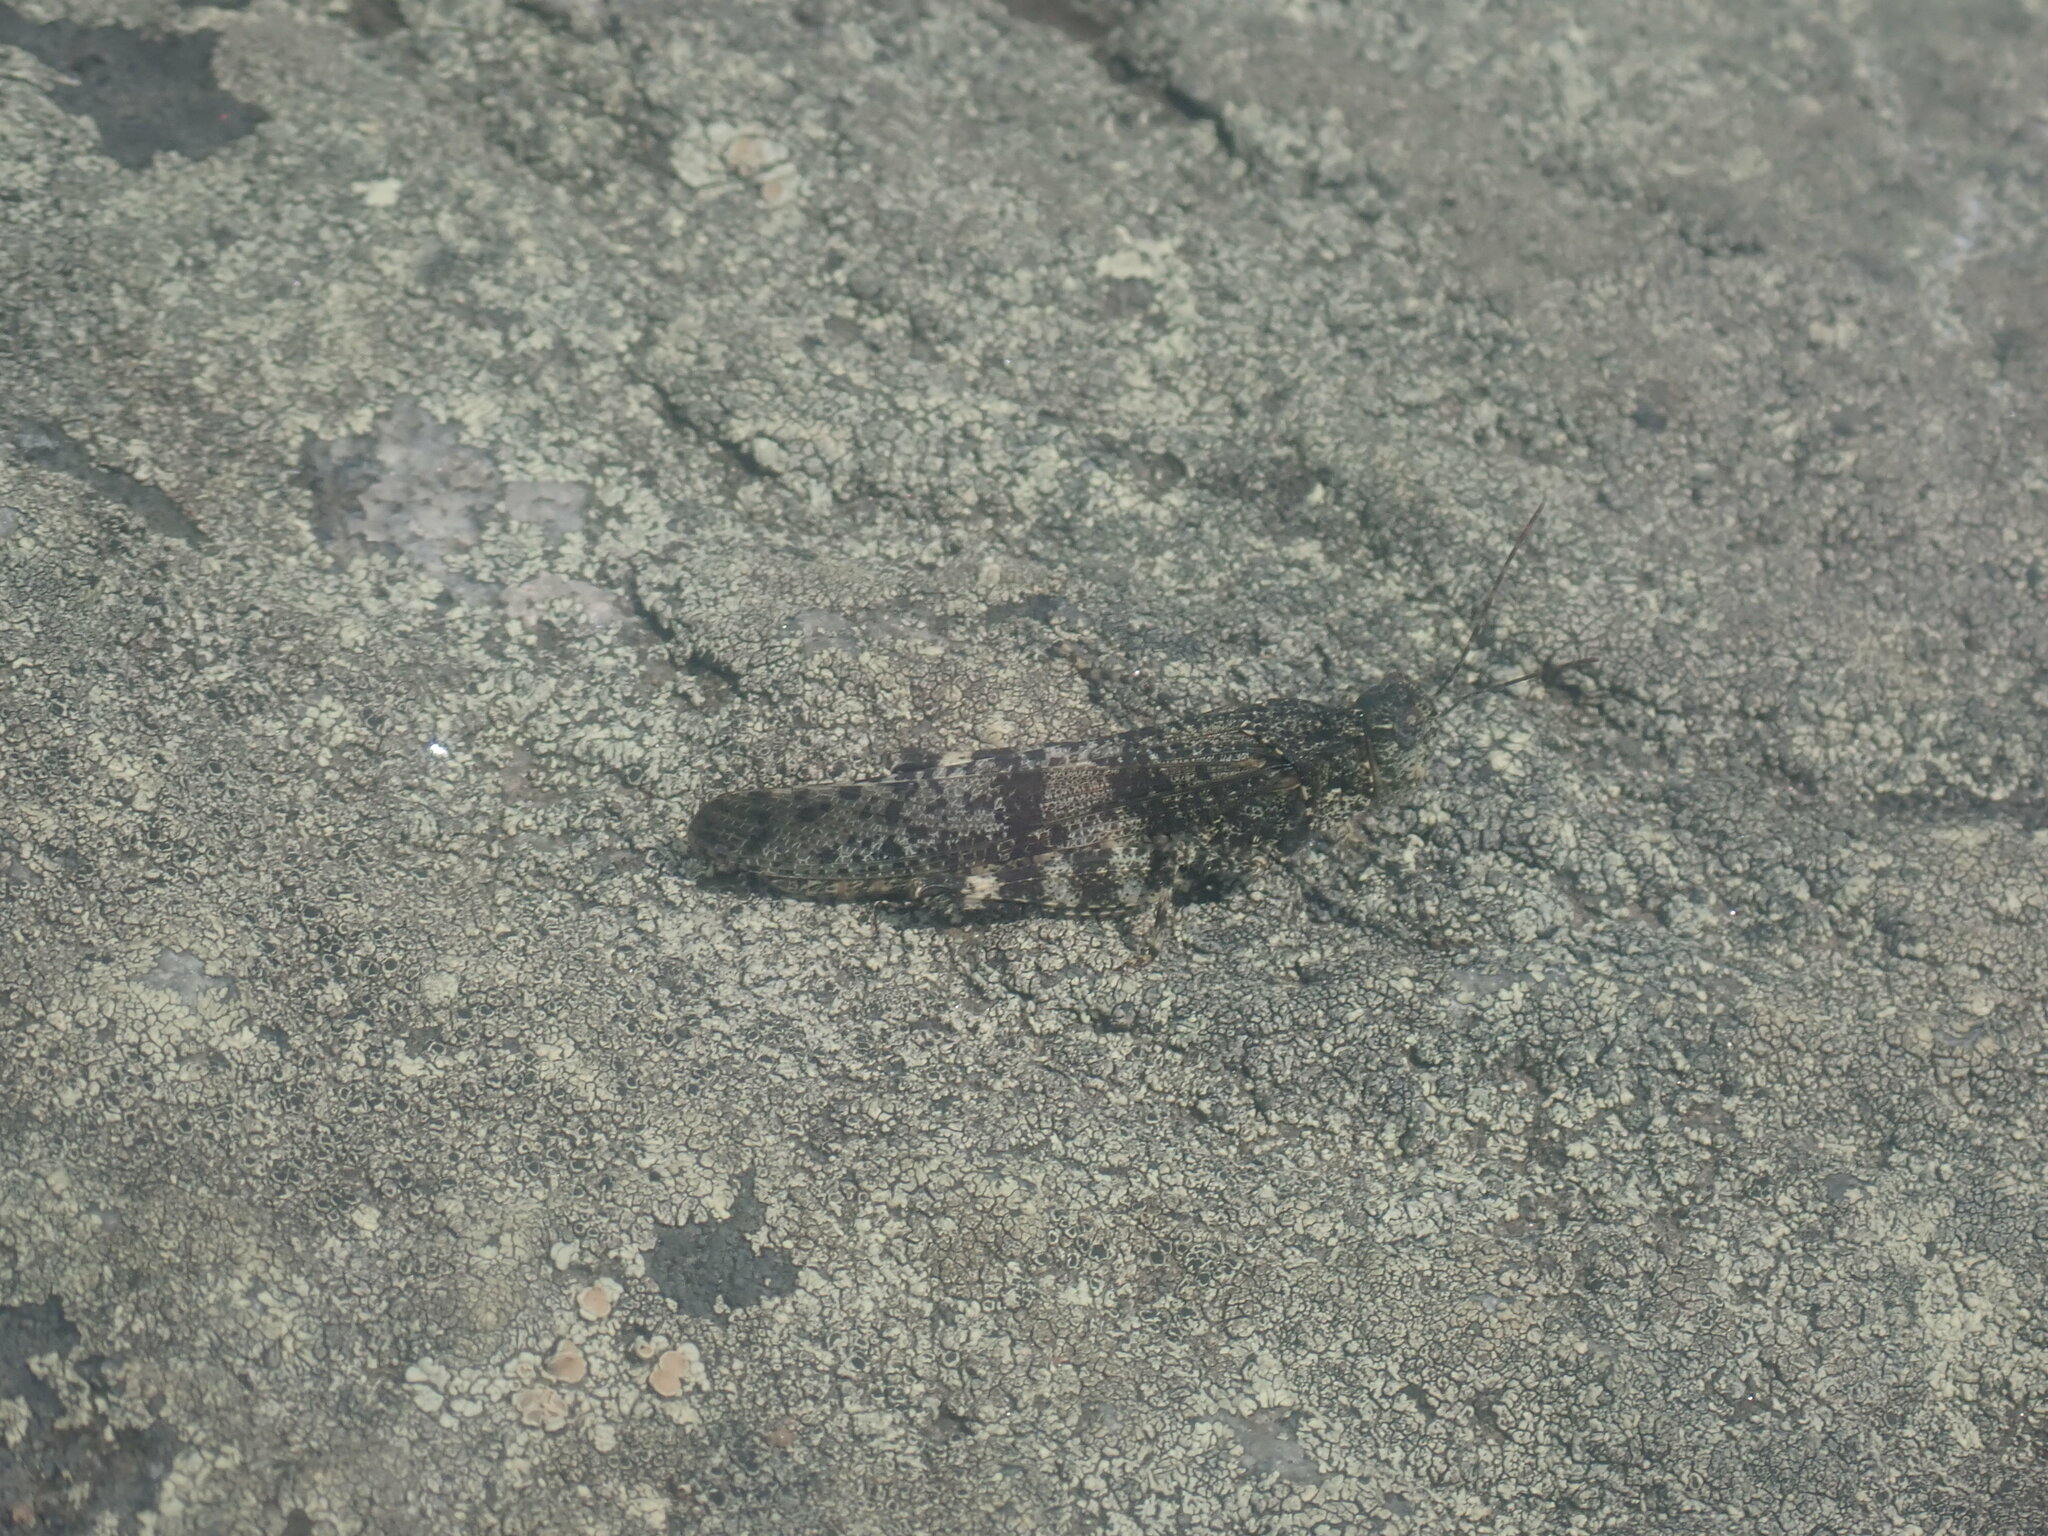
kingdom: Animalia
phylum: Arthropoda
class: Insecta
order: Orthoptera
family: Acrididae
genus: Trimerotropis
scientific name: Trimerotropis verruculata
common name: Crackling forest grasshopper
